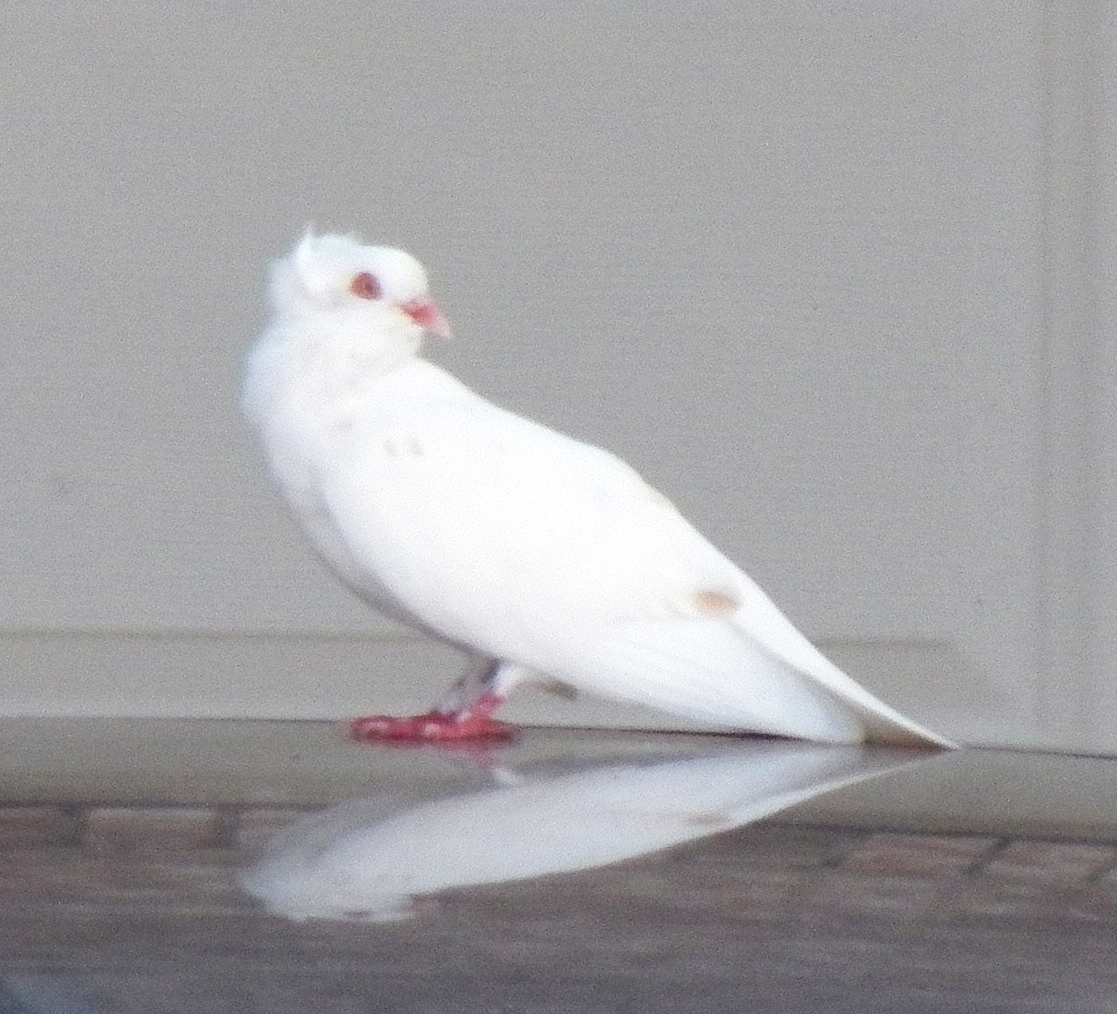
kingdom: Animalia
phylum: Chordata
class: Aves
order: Columbiformes
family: Columbidae
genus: Columba
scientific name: Columba livia
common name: Rock pigeon
